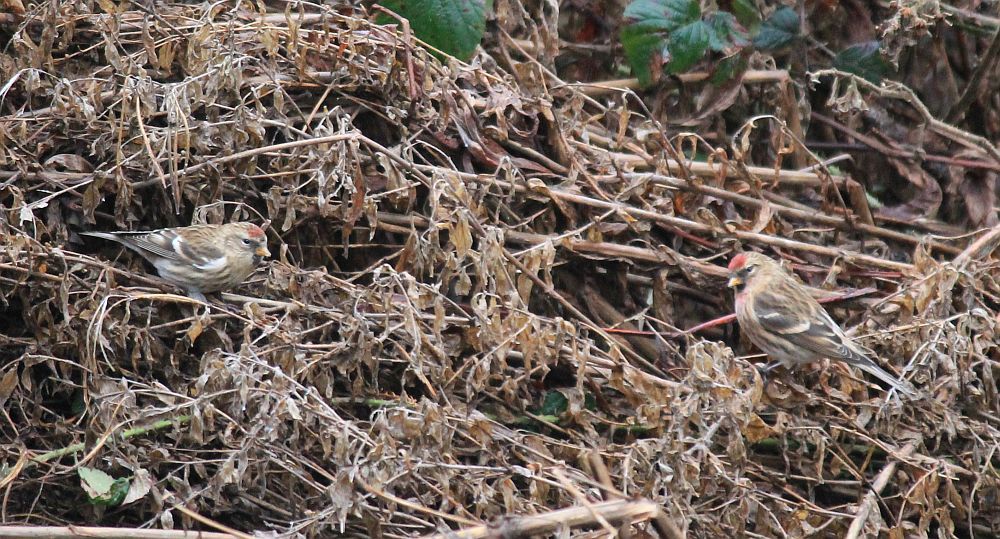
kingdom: Animalia
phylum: Chordata
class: Aves
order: Passeriformes
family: Fringillidae
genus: Acanthis
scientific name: Acanthis flammea
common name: Common redpoll
